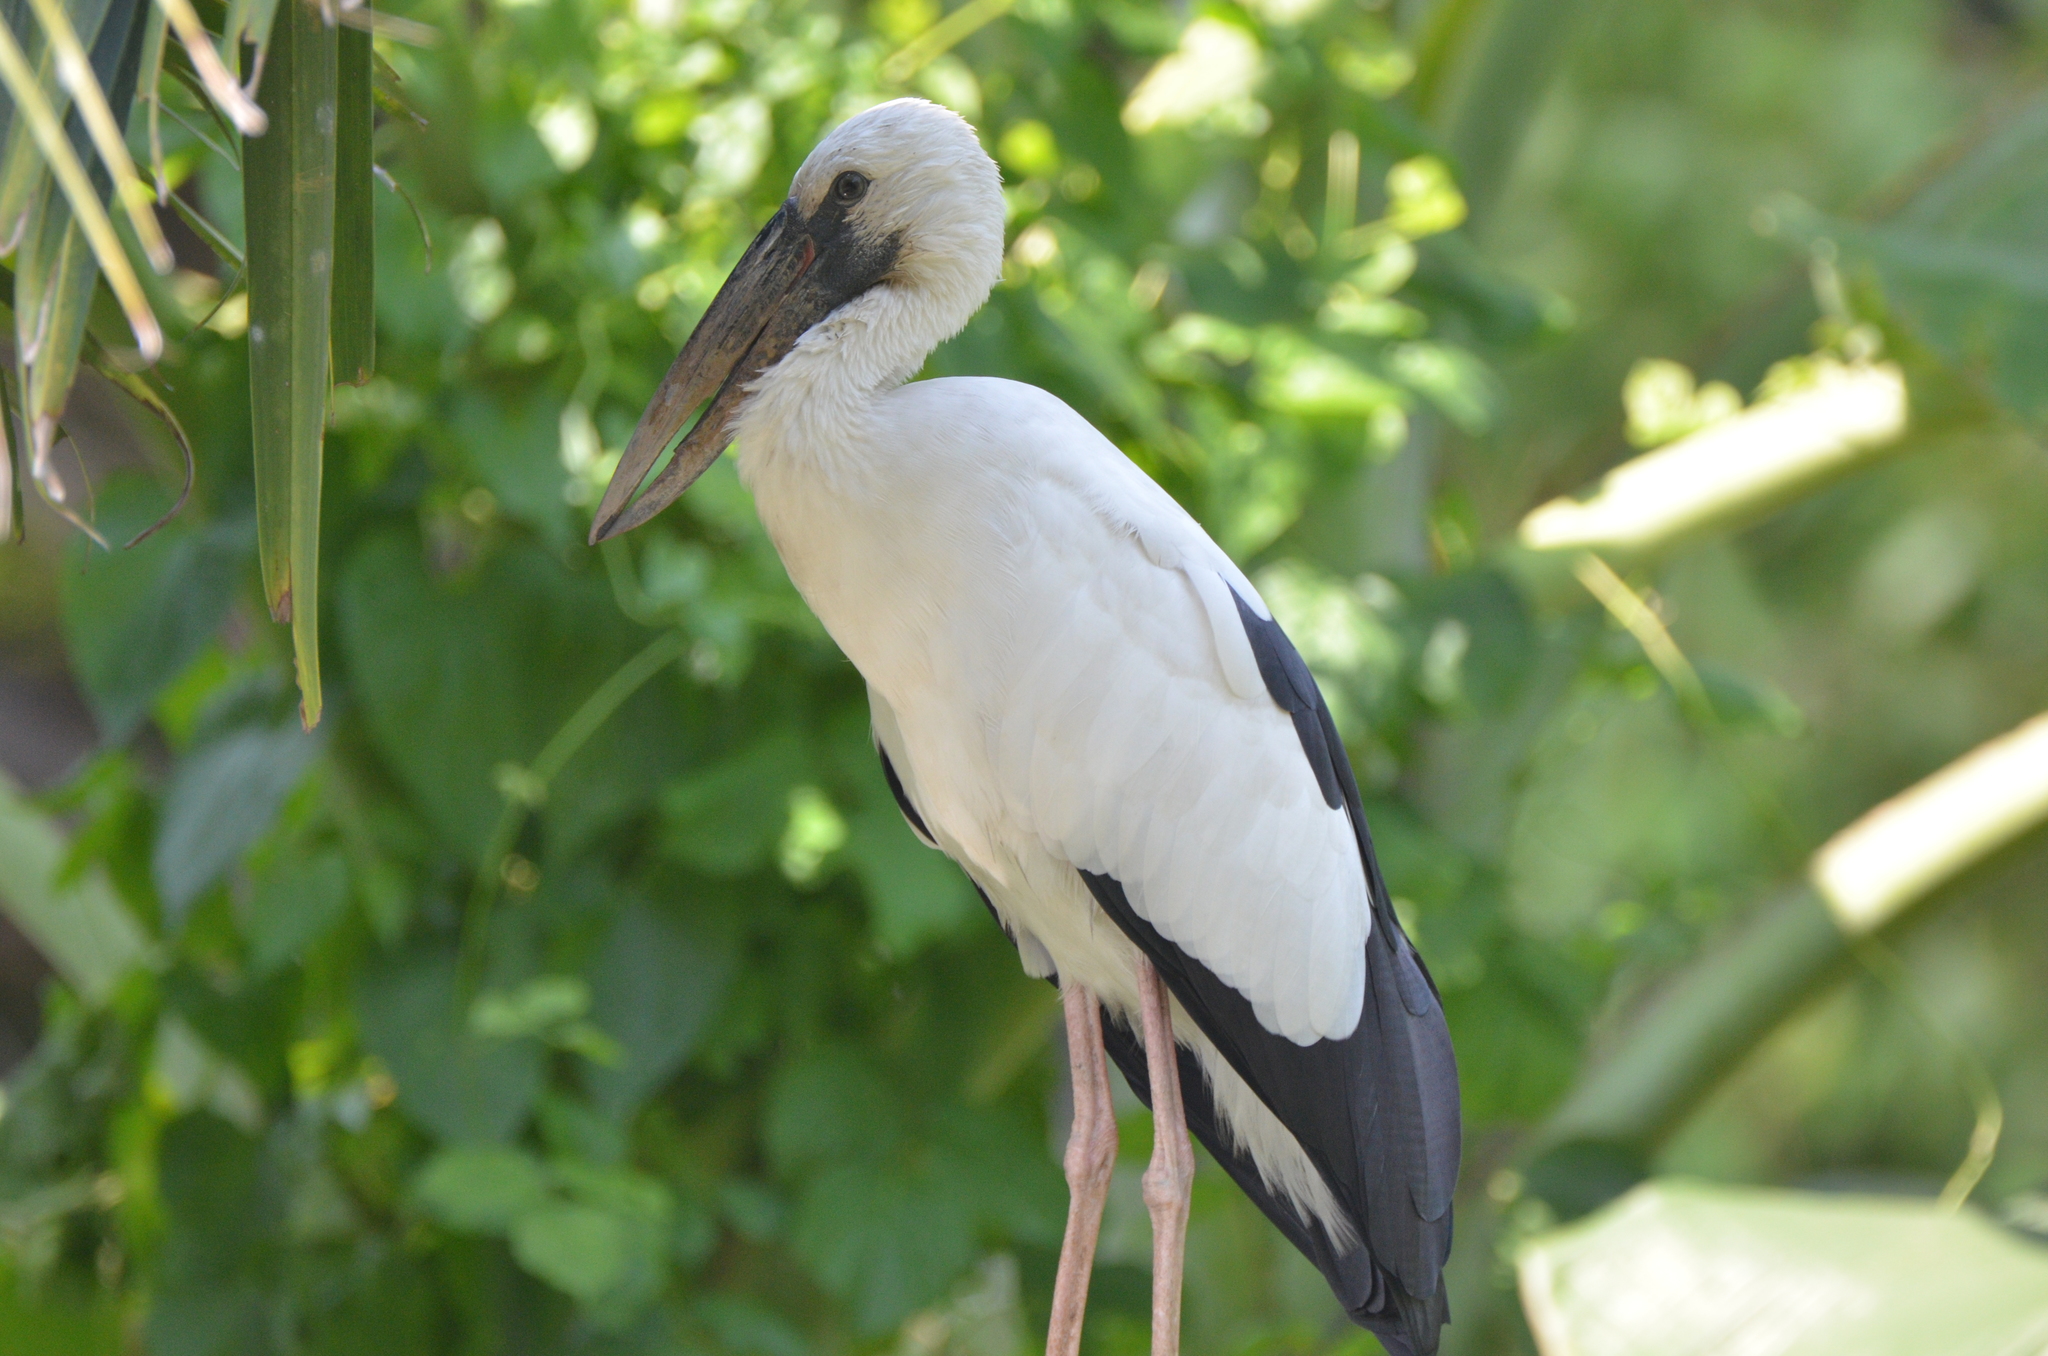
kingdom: Animalia
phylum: Chordata
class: Aves
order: Ciconiiformes
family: Ciconiidae
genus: Anastomus
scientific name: Anastomus oscitans
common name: Asian openbill
